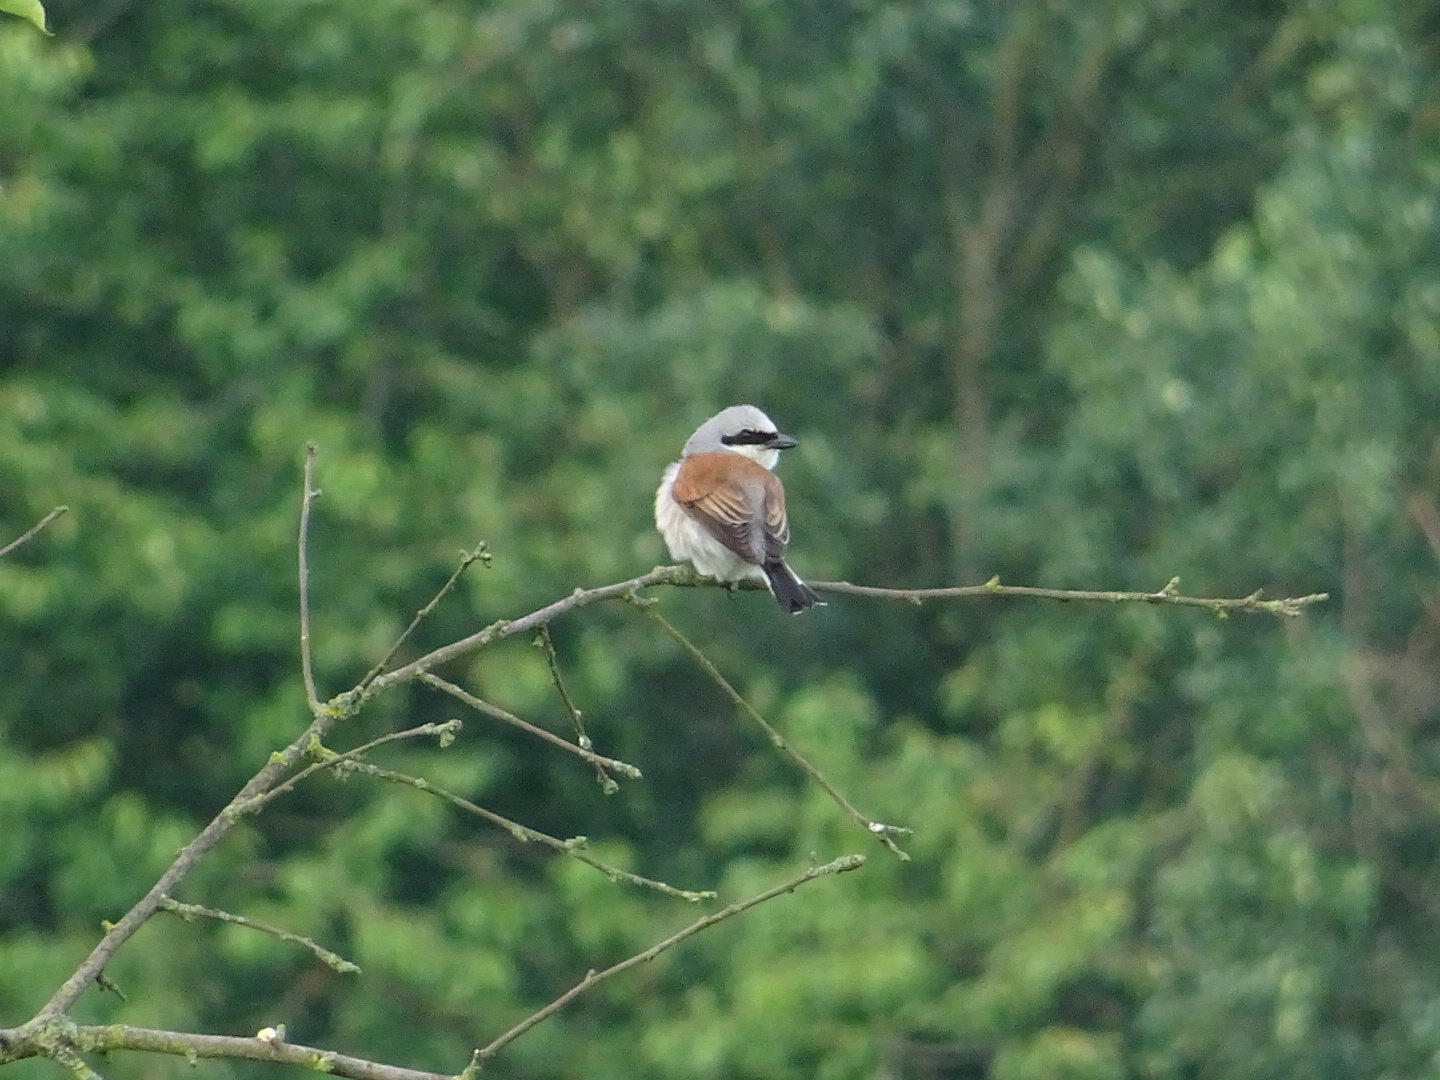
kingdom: Animalia
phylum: Chordata
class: Aves
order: Passeriformes
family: Laniidae
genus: Lanius
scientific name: Lanius collurio
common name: Red-backed shrike
